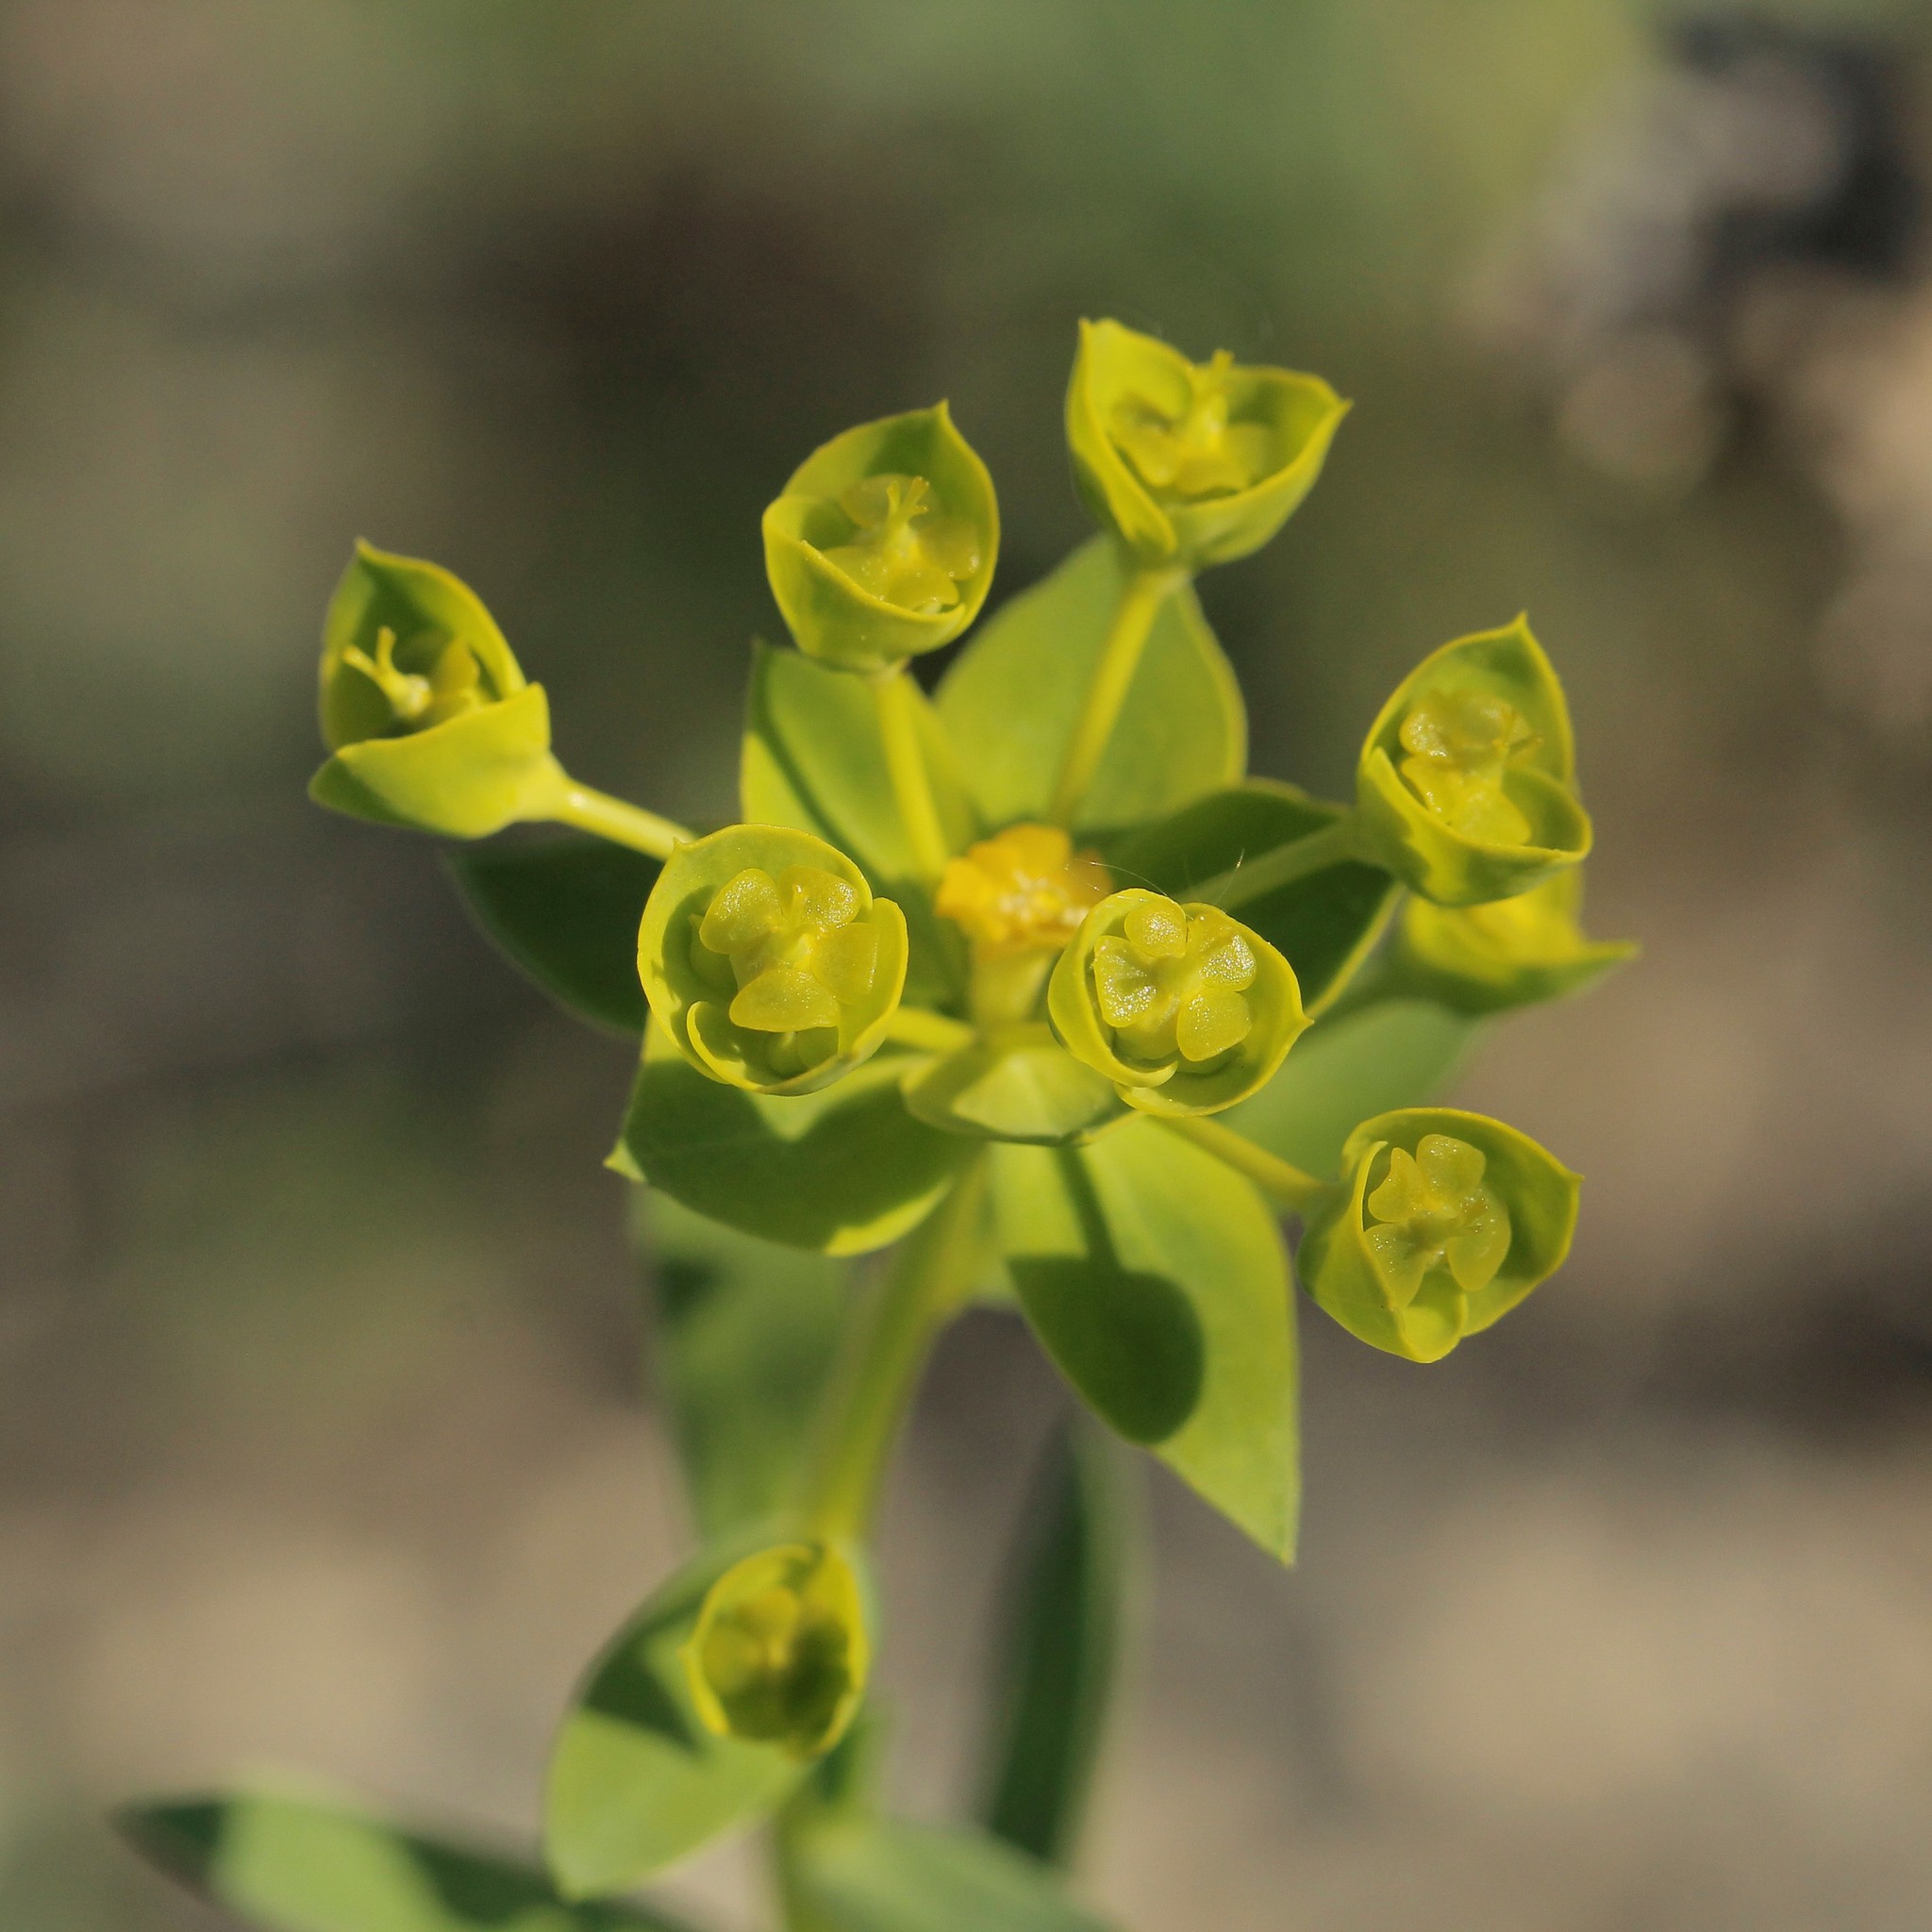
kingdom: Plantae
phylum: Tracheophyta
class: Magnoliopsida
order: Malpighiales
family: Euphorbiaceae
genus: Euphorbia
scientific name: Euphorbia seguieriana
